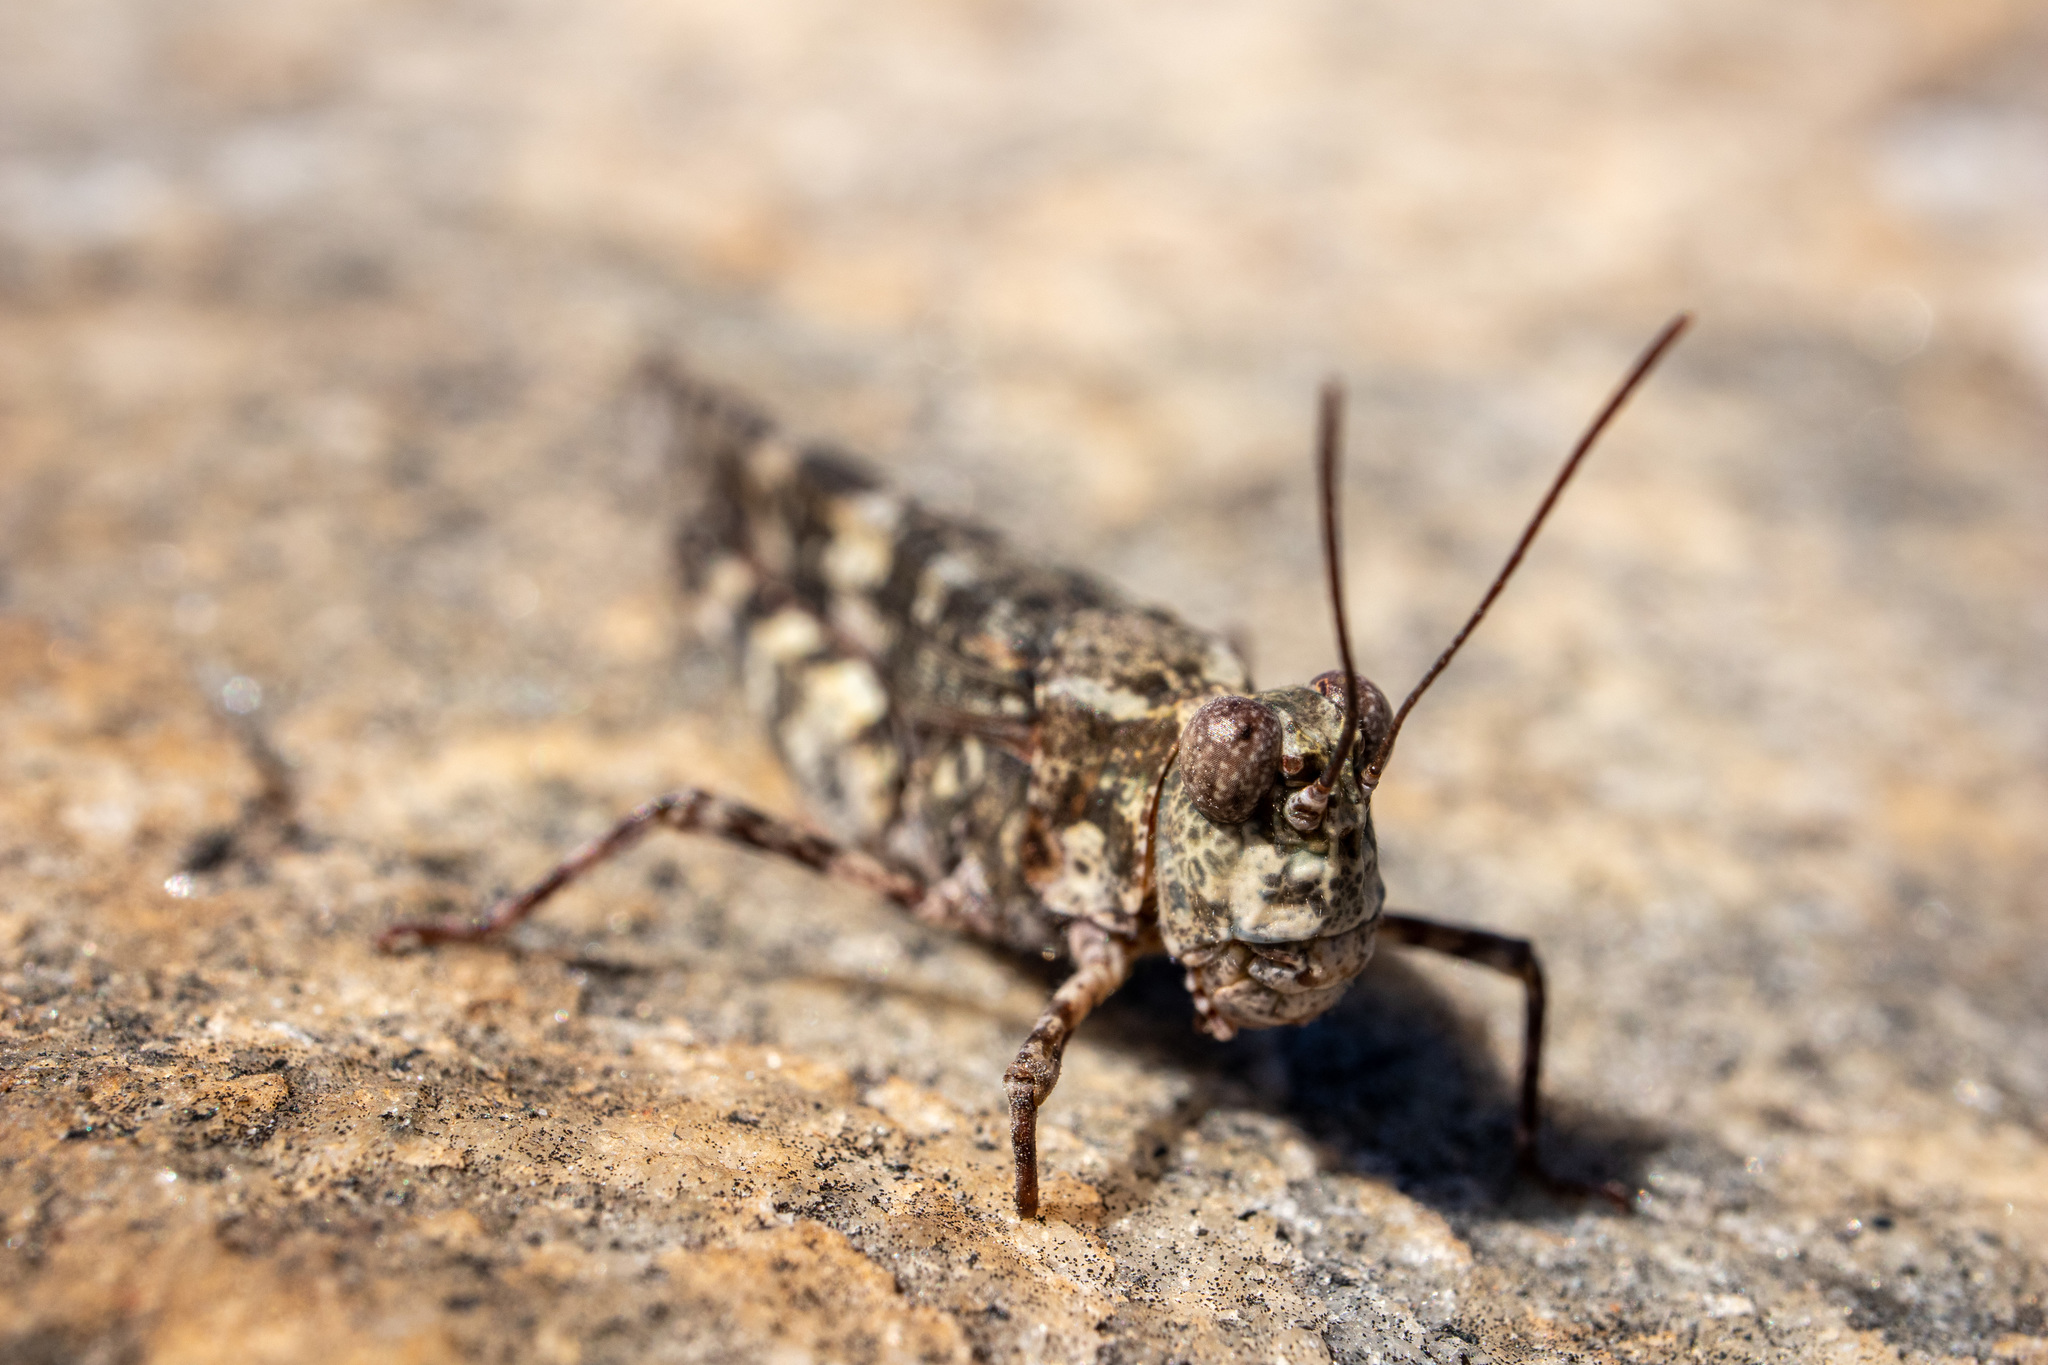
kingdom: Animalia
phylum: Arthropoda
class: Insecta
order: Orthoptera
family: Acrididae
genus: Trimerotropis
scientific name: Trimerotropis saxatilis
